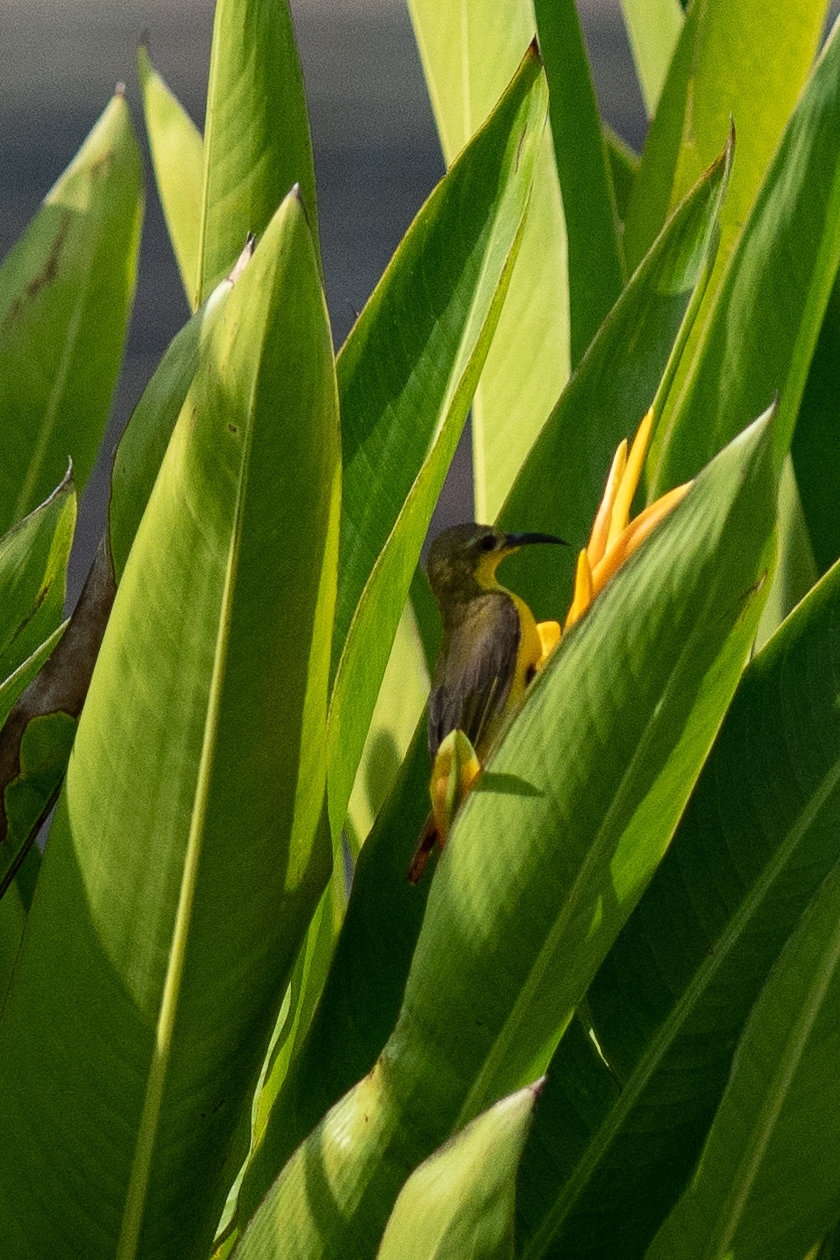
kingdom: Animalia
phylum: Chordata
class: Aves
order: Passeriformes
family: Nectariniidae
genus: Cinnyris
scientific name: Cinnyris
